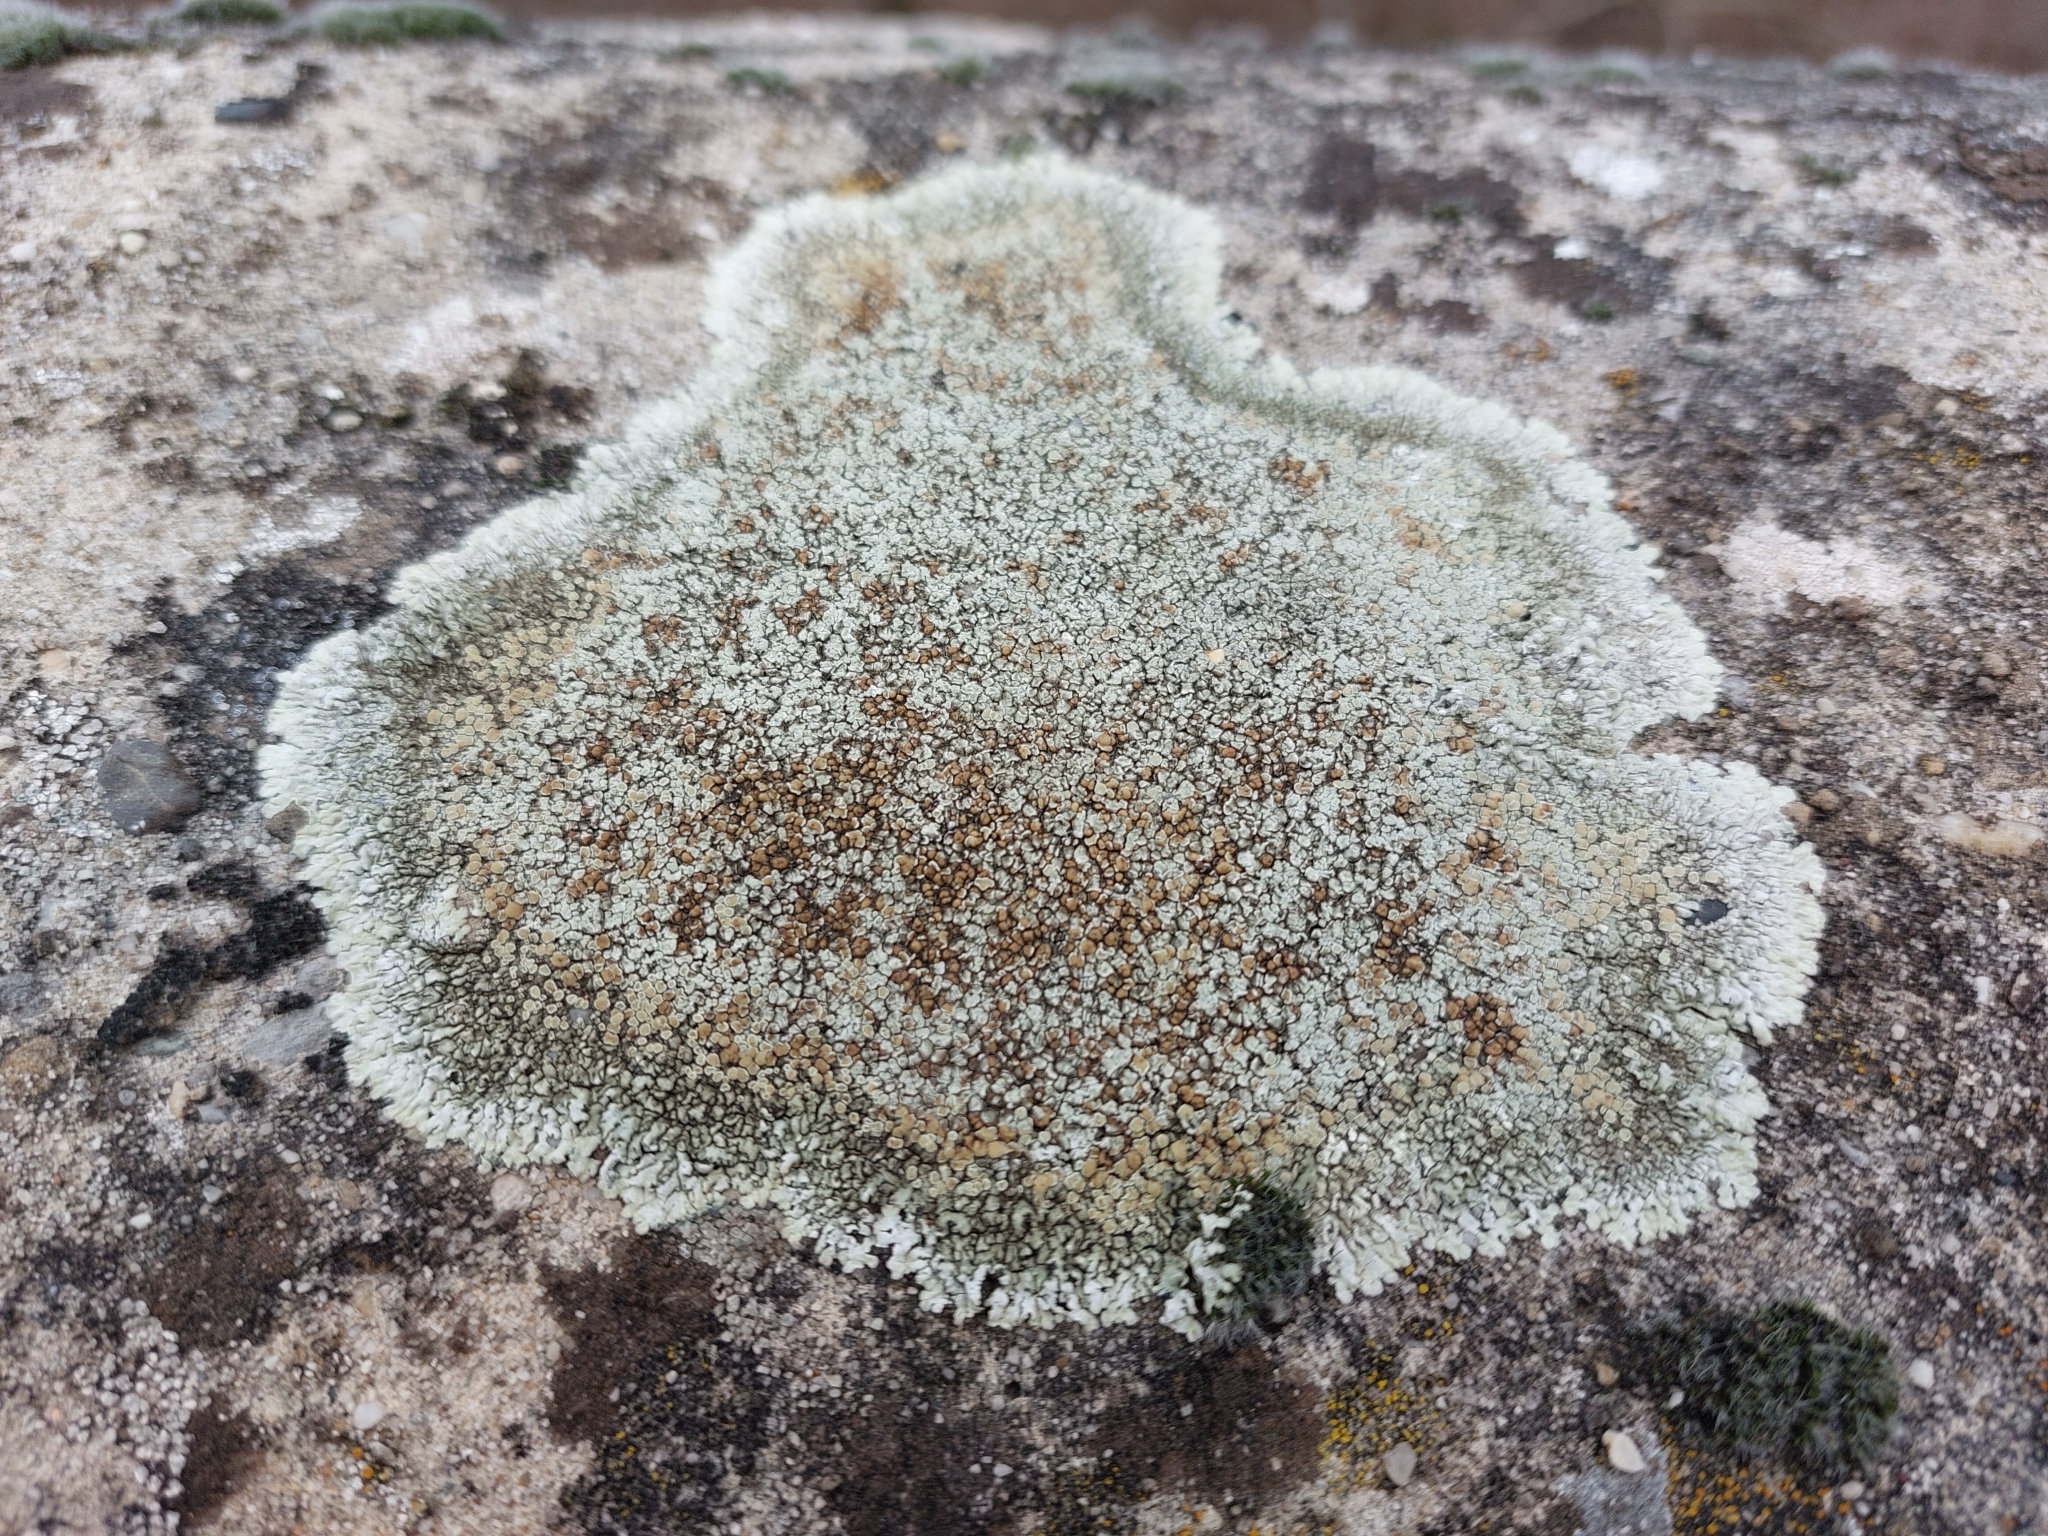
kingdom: Fungi
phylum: Ascomycota
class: Lecanoromycetes
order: Lecanorales
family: Lecanoraceae
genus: Protoparmeliopsis
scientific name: Protoparmeliopsis muralis
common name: Stonewall rim lichen
